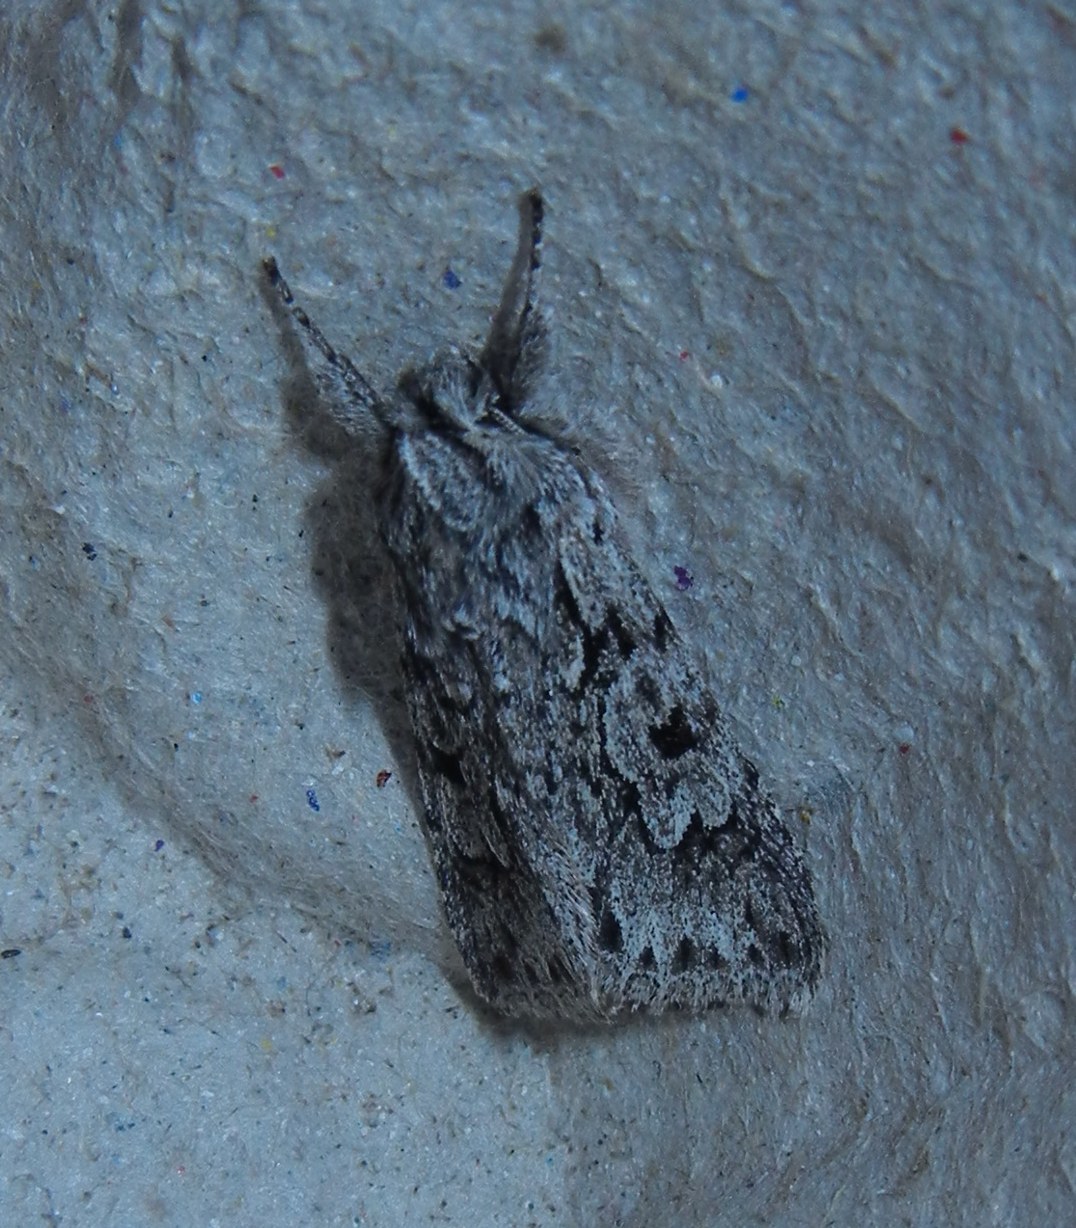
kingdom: Animalia
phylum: Arthropoda
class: Insecta
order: Lepidoptera
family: Noctuidae
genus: Xylocampa
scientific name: Xylocampa areola
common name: Early grey
